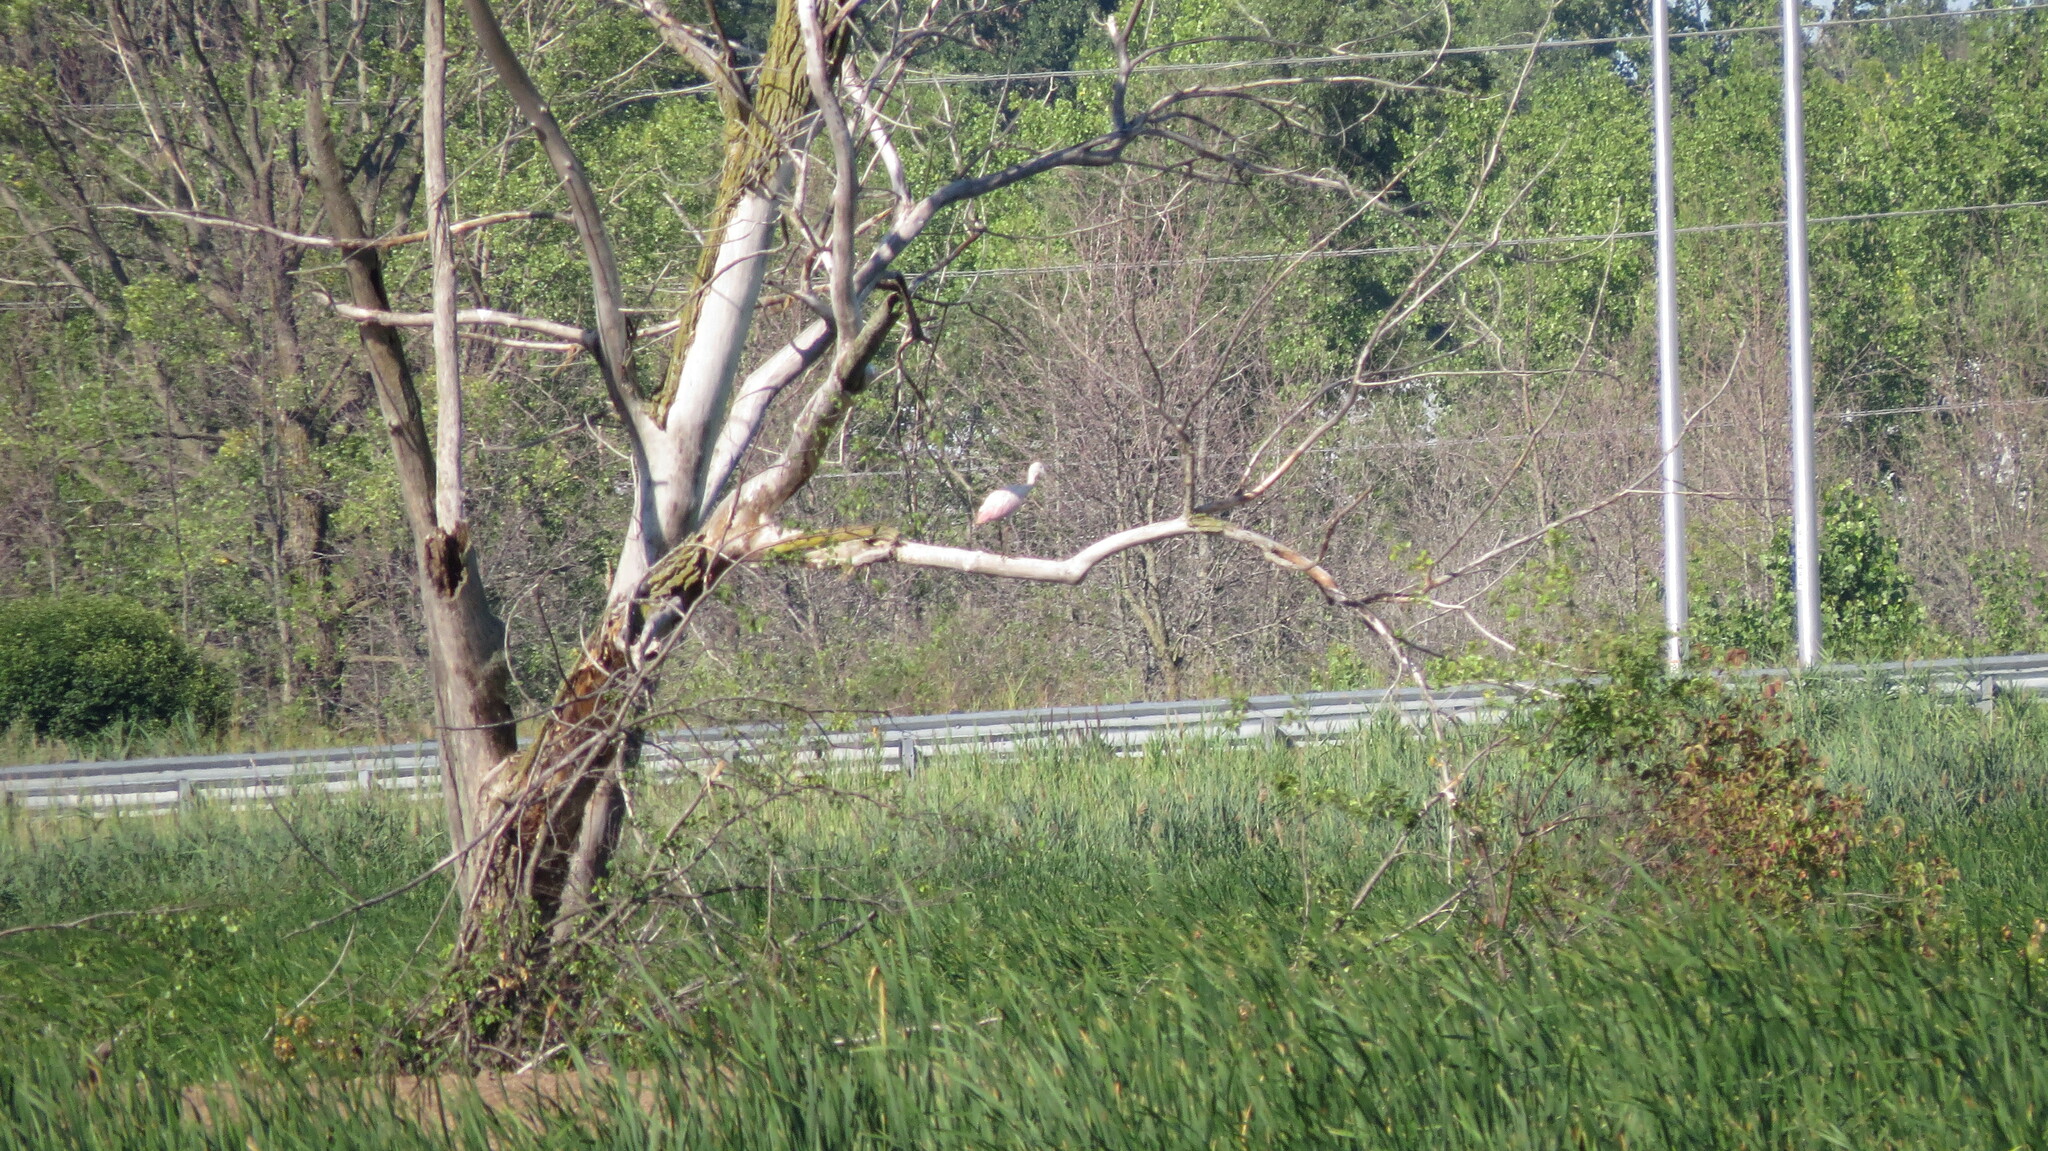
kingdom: Animalia
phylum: Chordata
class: Aves
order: Pelecaniformes
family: Threskiornithidae
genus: Platalea
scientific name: Platalea ajaja
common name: Roseate spoonbill
